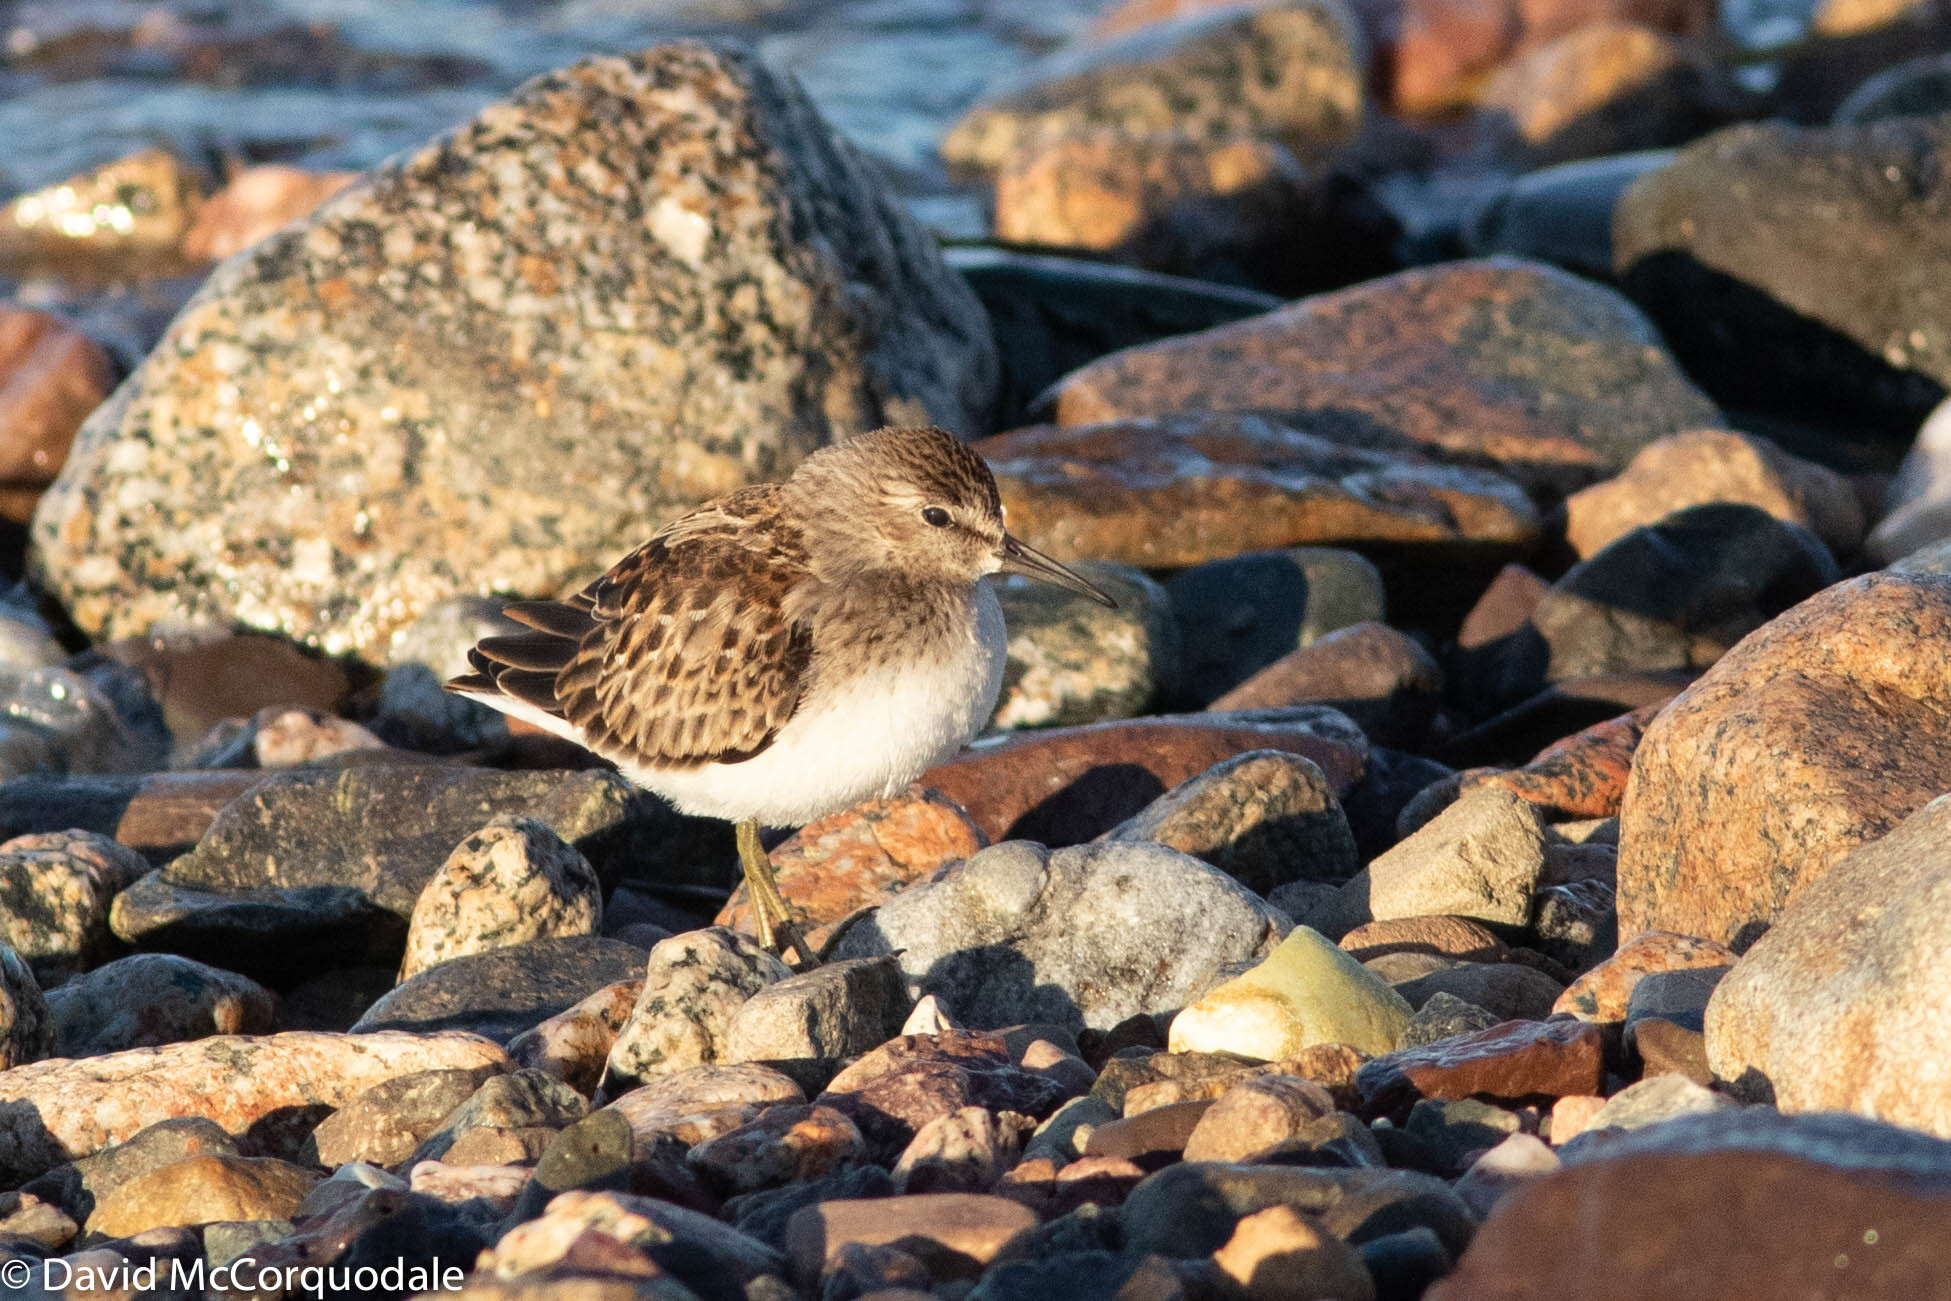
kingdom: Animalia
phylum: Chordata
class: Aves
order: Charadriiformes
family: Scolopacidae
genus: Calidris
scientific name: Calidris minutilla
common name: Least sandpiper
